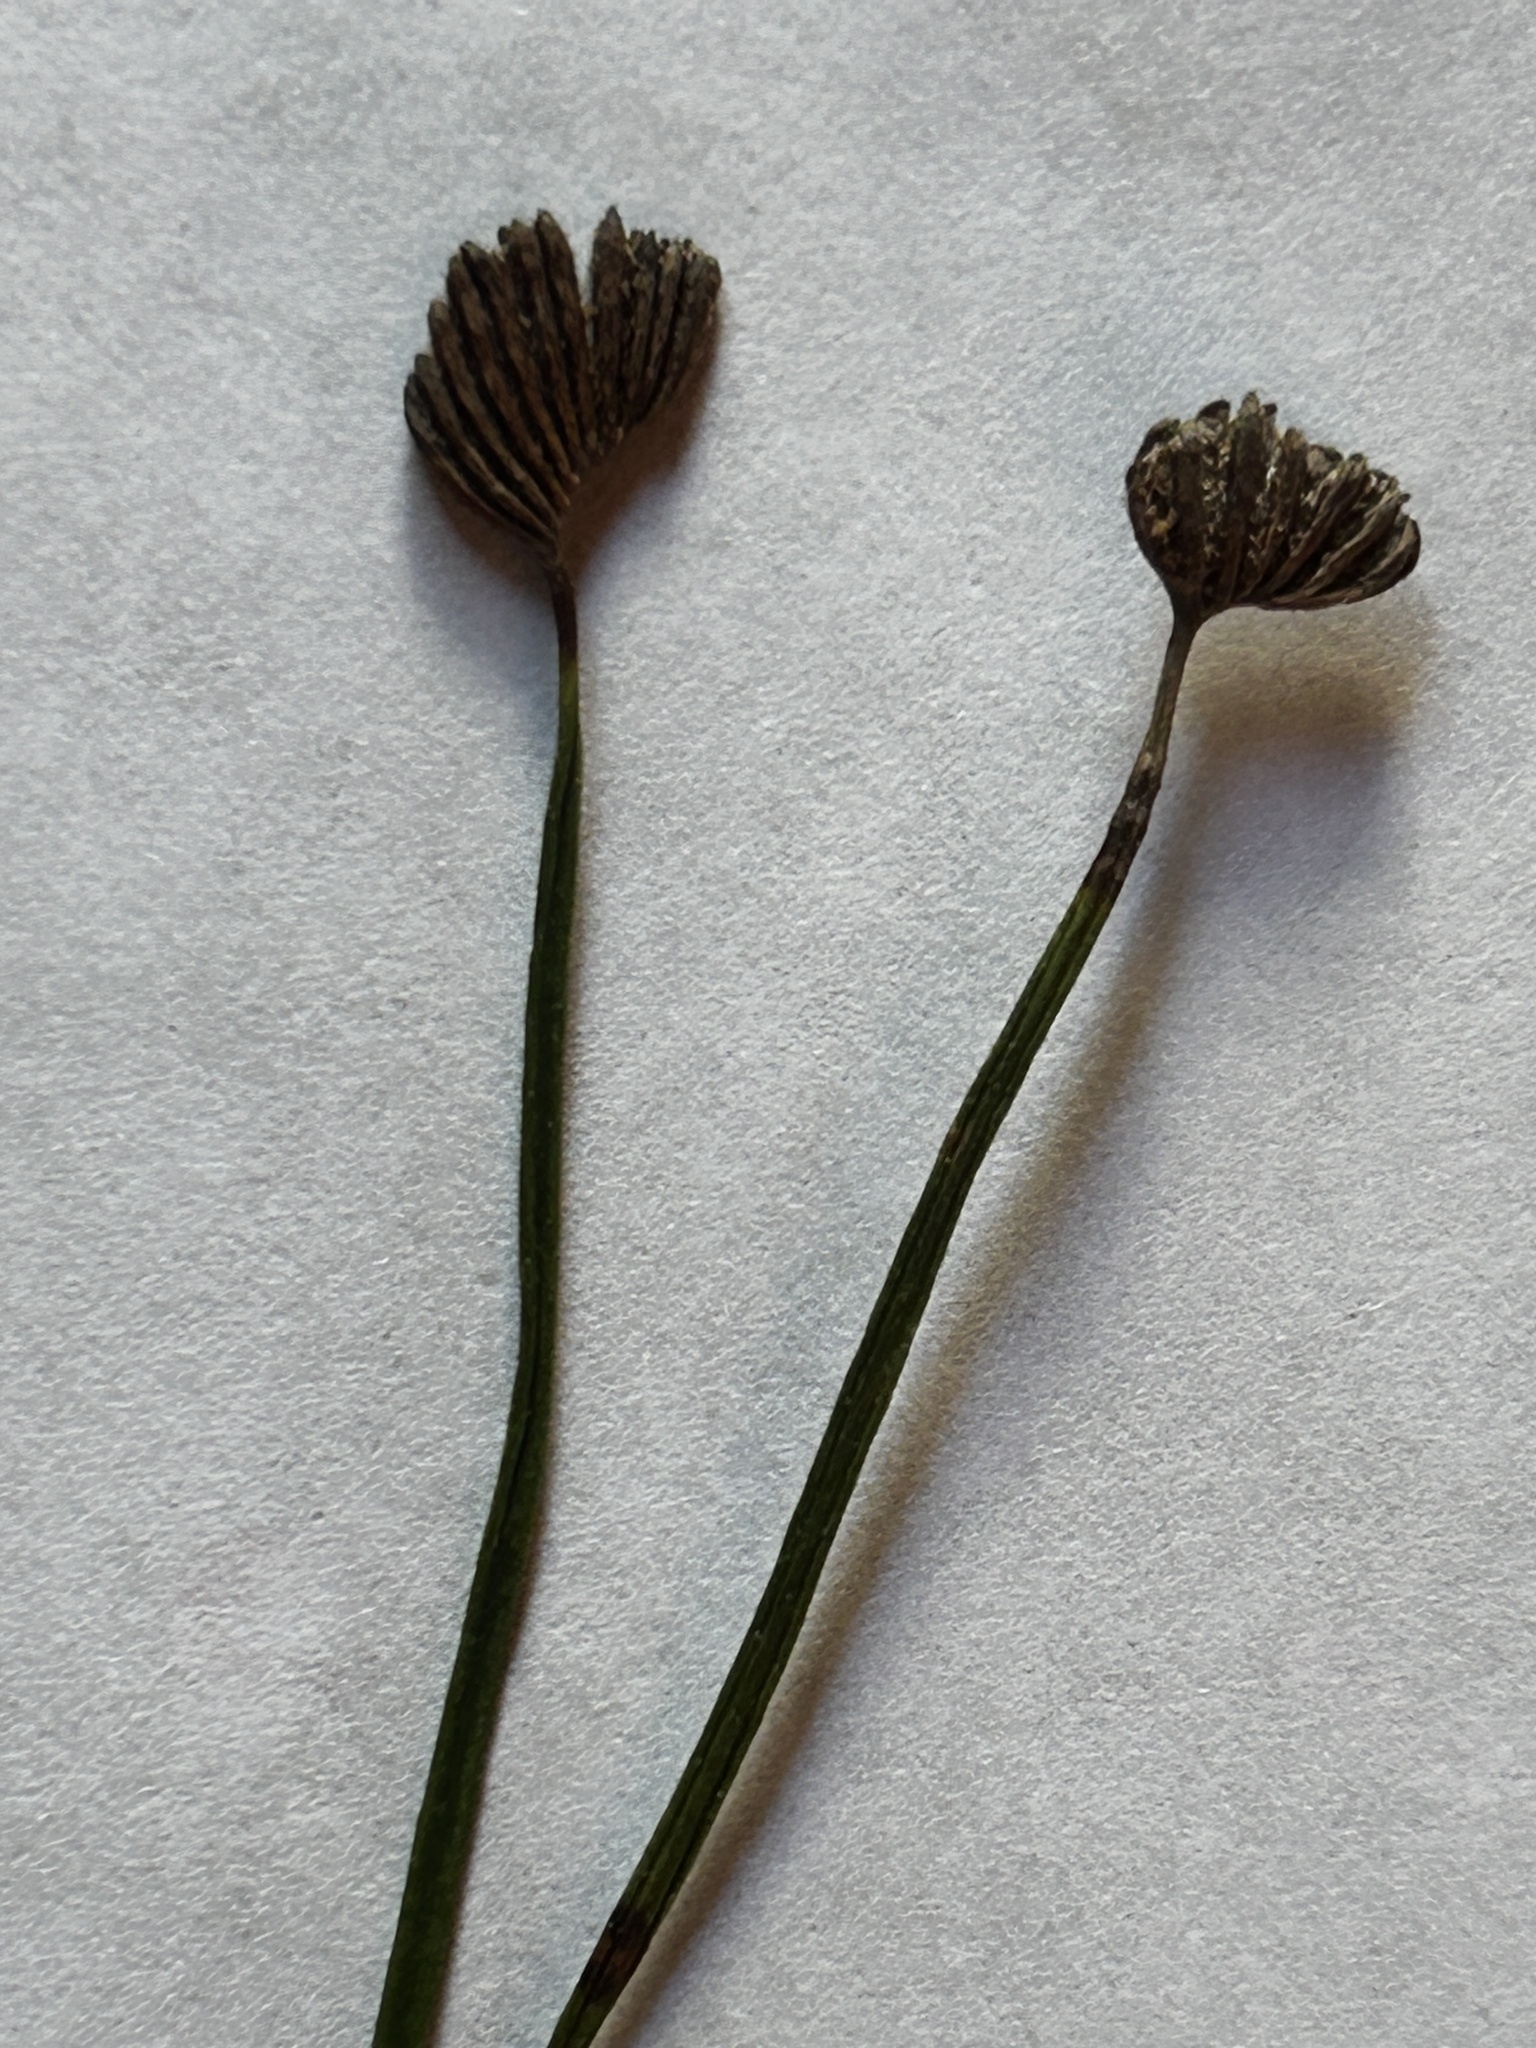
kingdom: Plantae
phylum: Tracheophyta
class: Polypodiopsida
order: Schizaeales
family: Schizaeaceae
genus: Schizaea
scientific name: Schizaea pectinata
